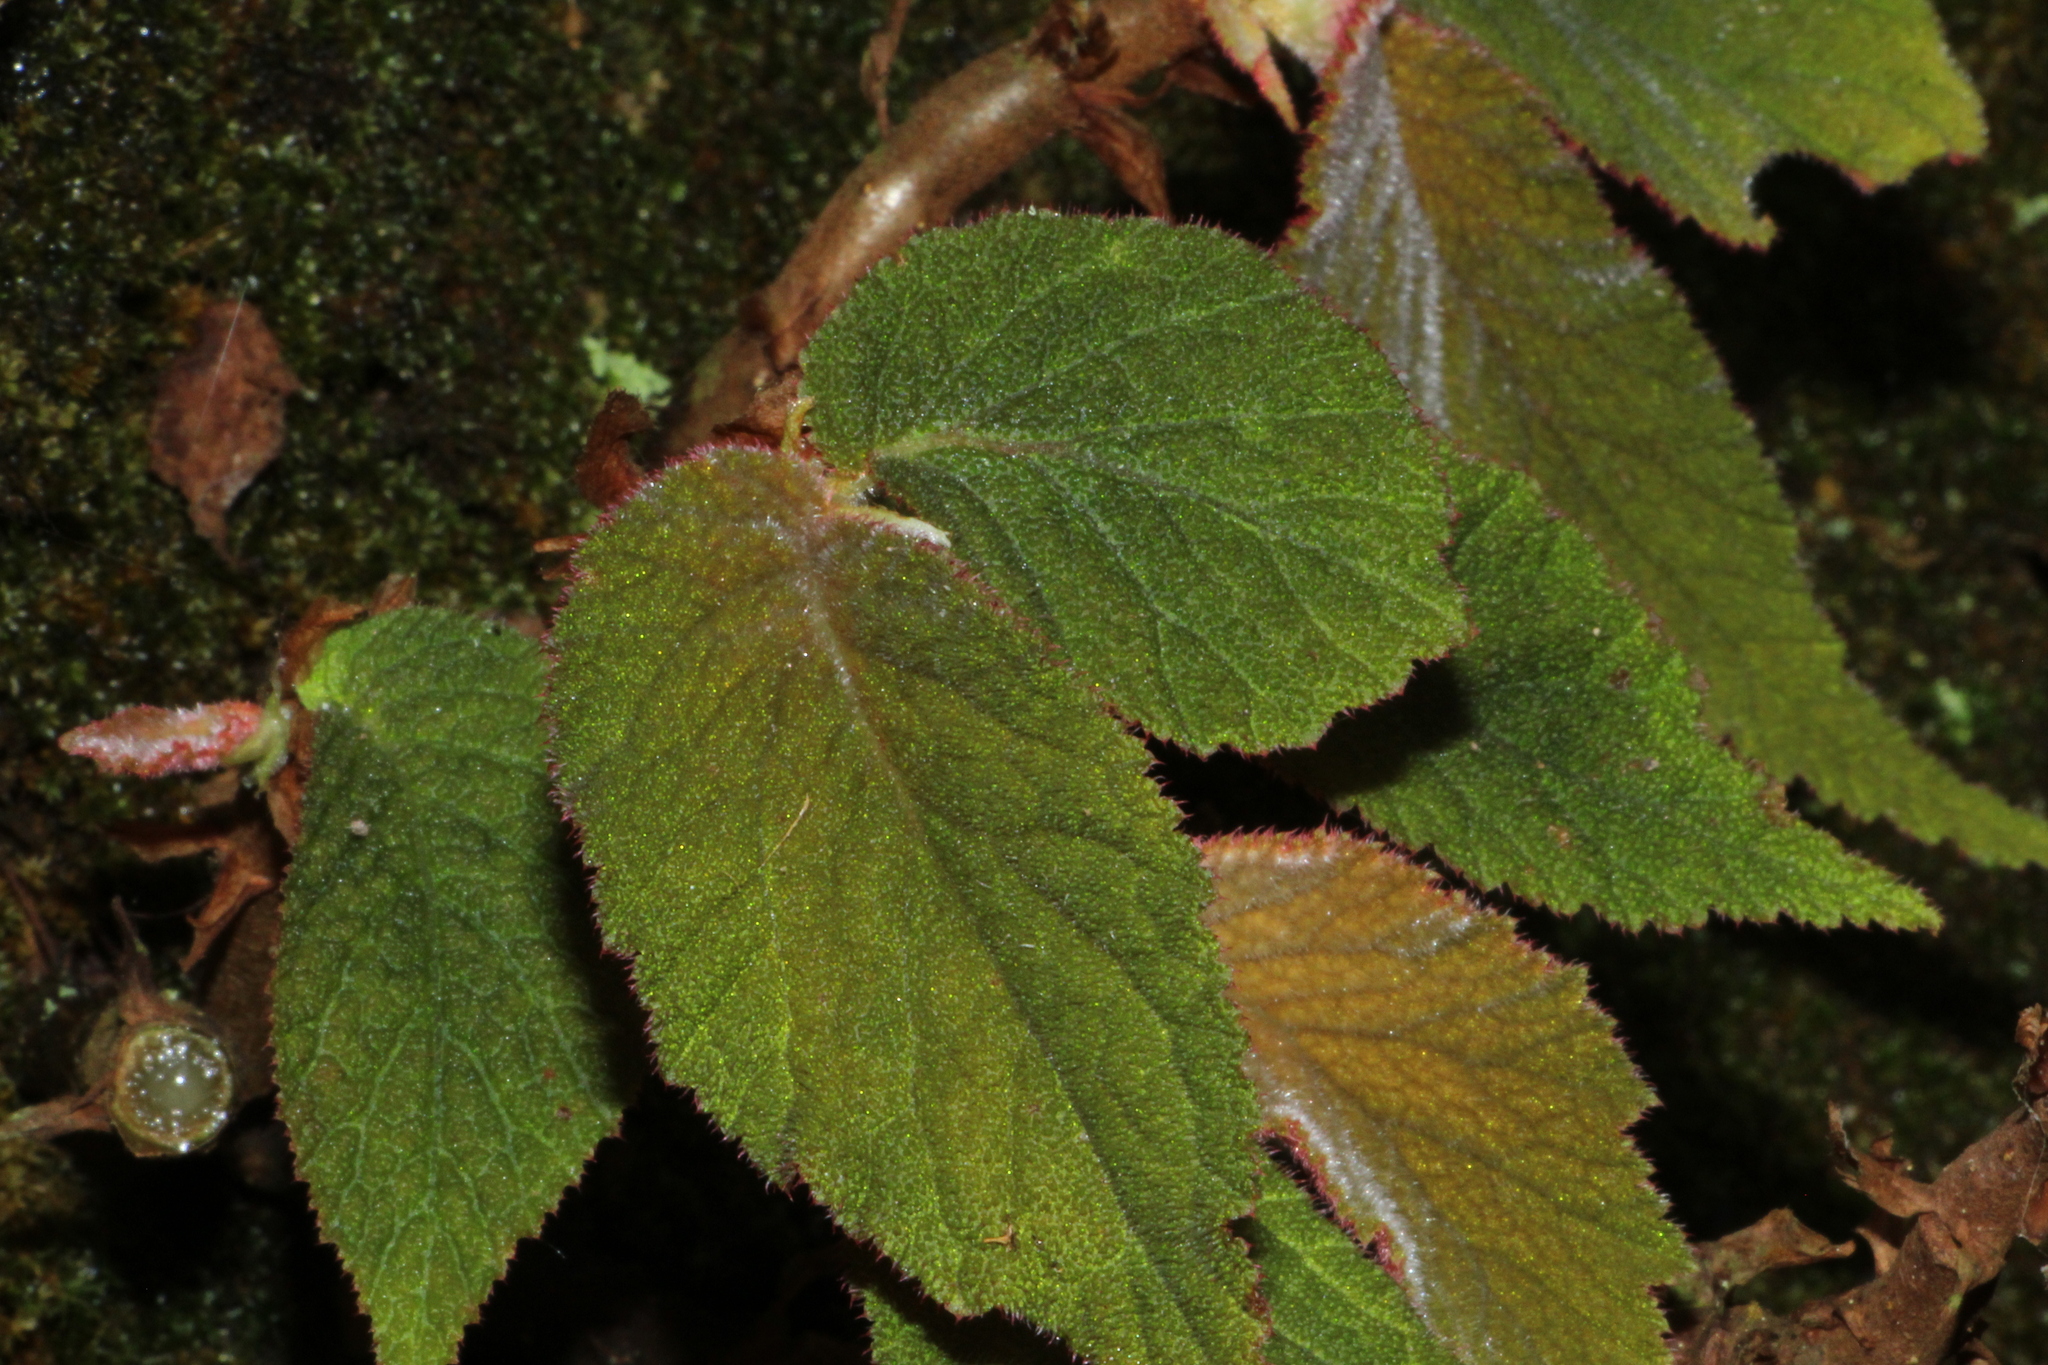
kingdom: Plantae
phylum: Tracheophyta
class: Magnoliopsida
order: Cucurbitales
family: Begoniaceae
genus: Begonia
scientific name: Begonia buddleiifolia
